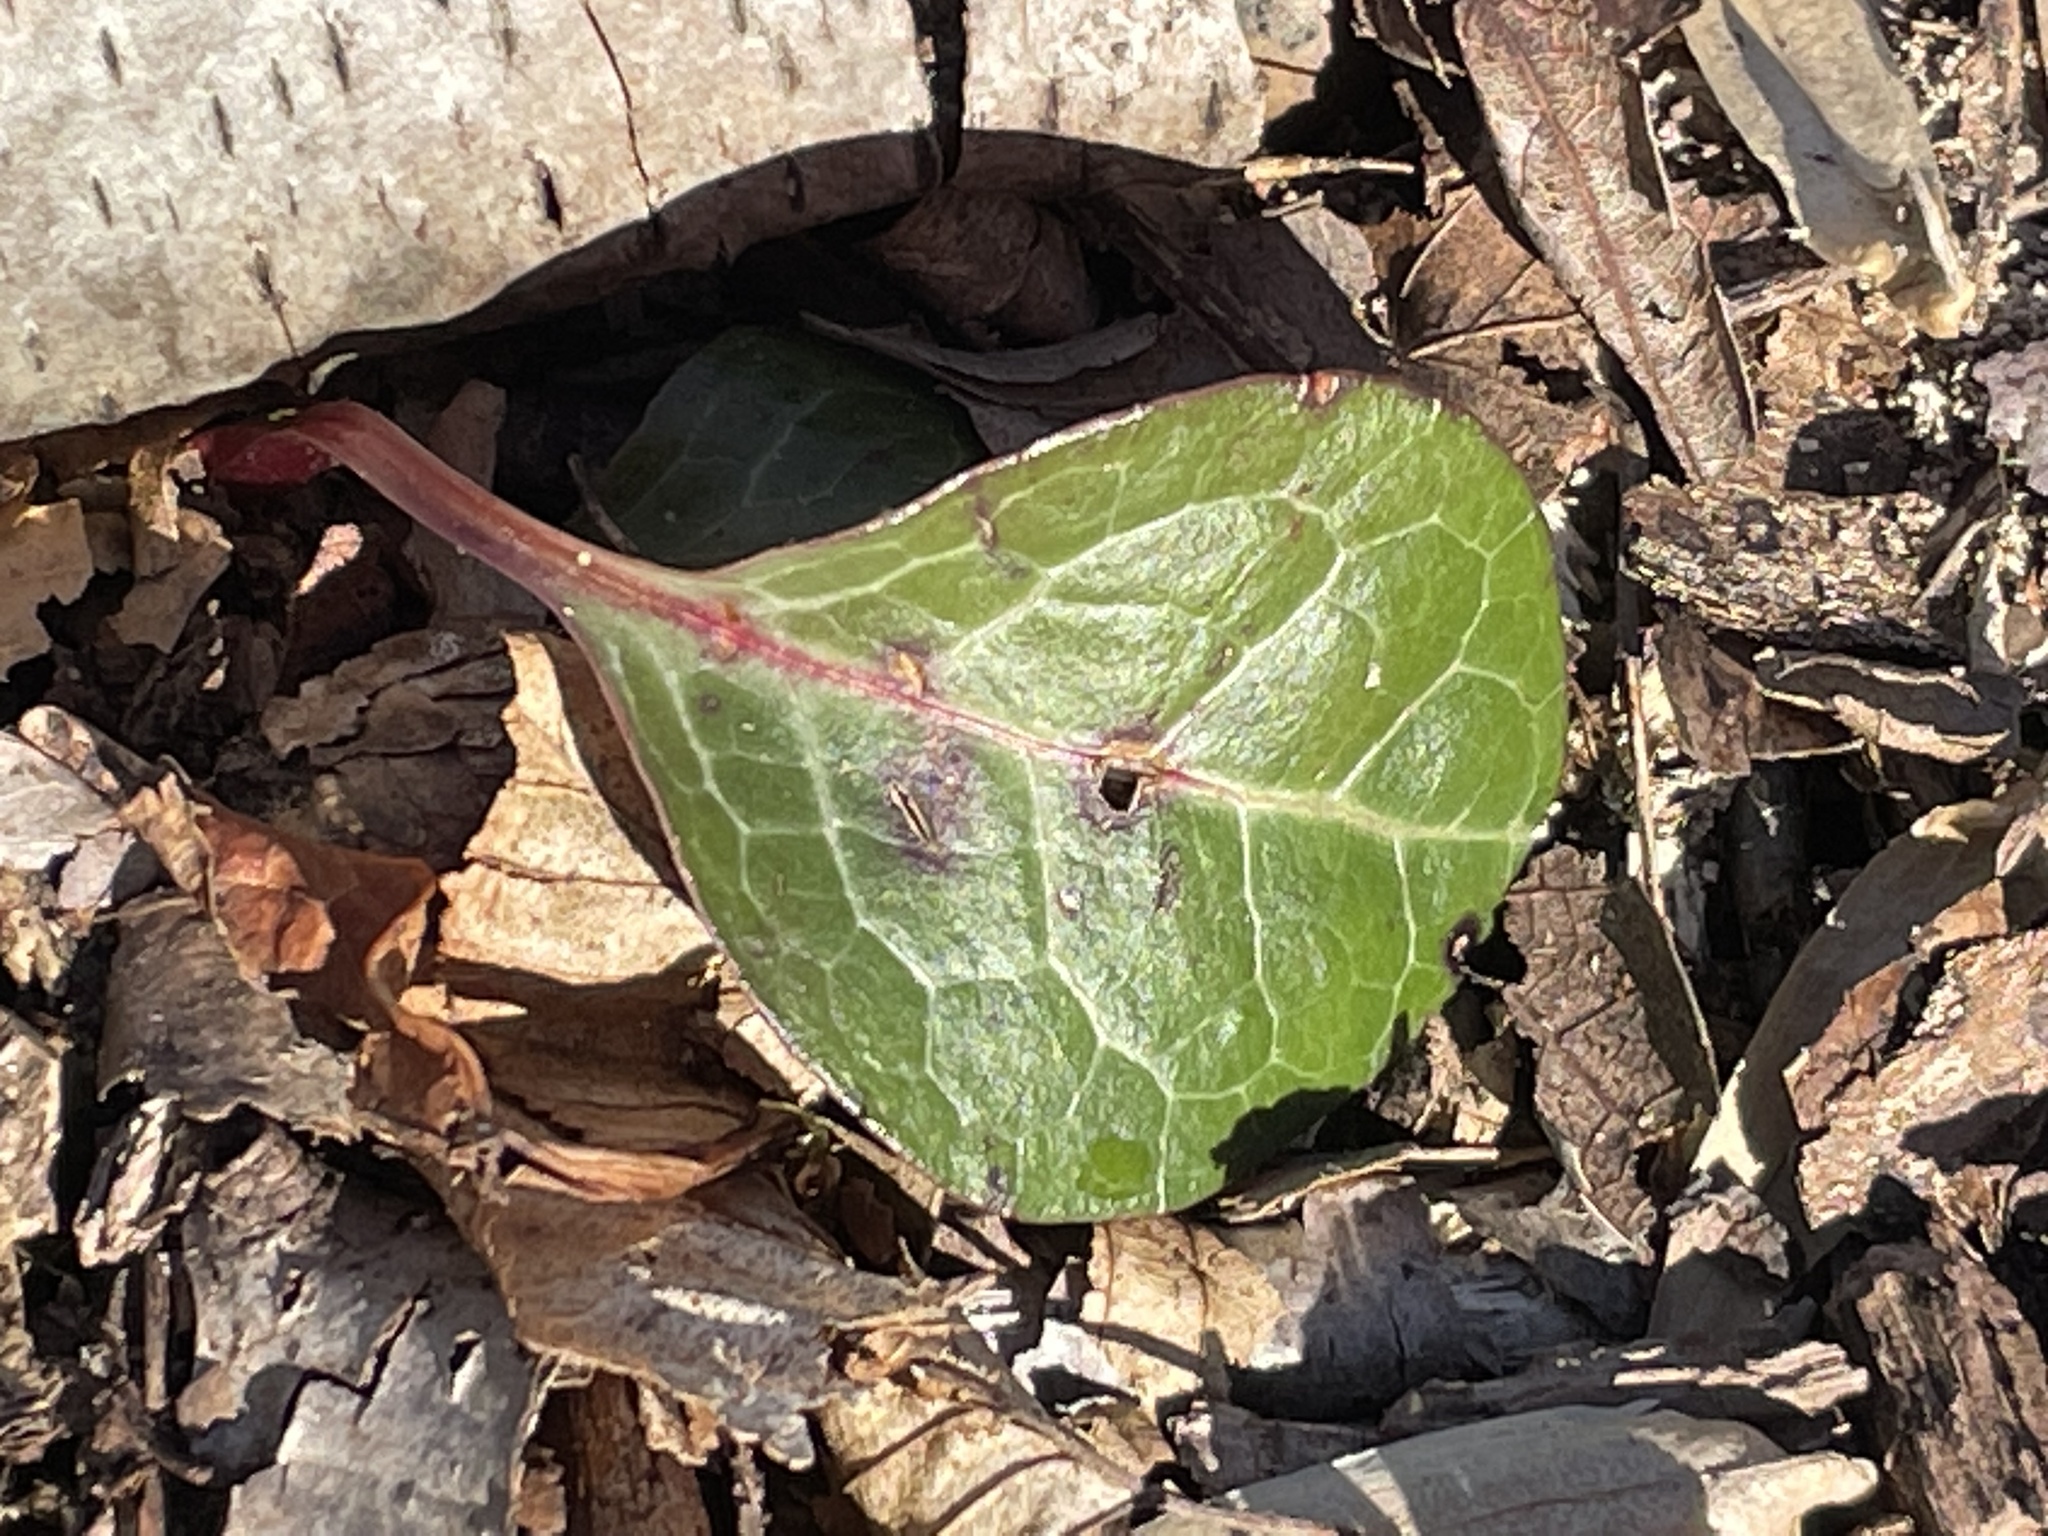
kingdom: Plantae
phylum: Tracheophyta
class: Magnoliopsida
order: Ericales
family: Ericaceae
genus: Pyrola
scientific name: Pyrola americana
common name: American wintergreen
